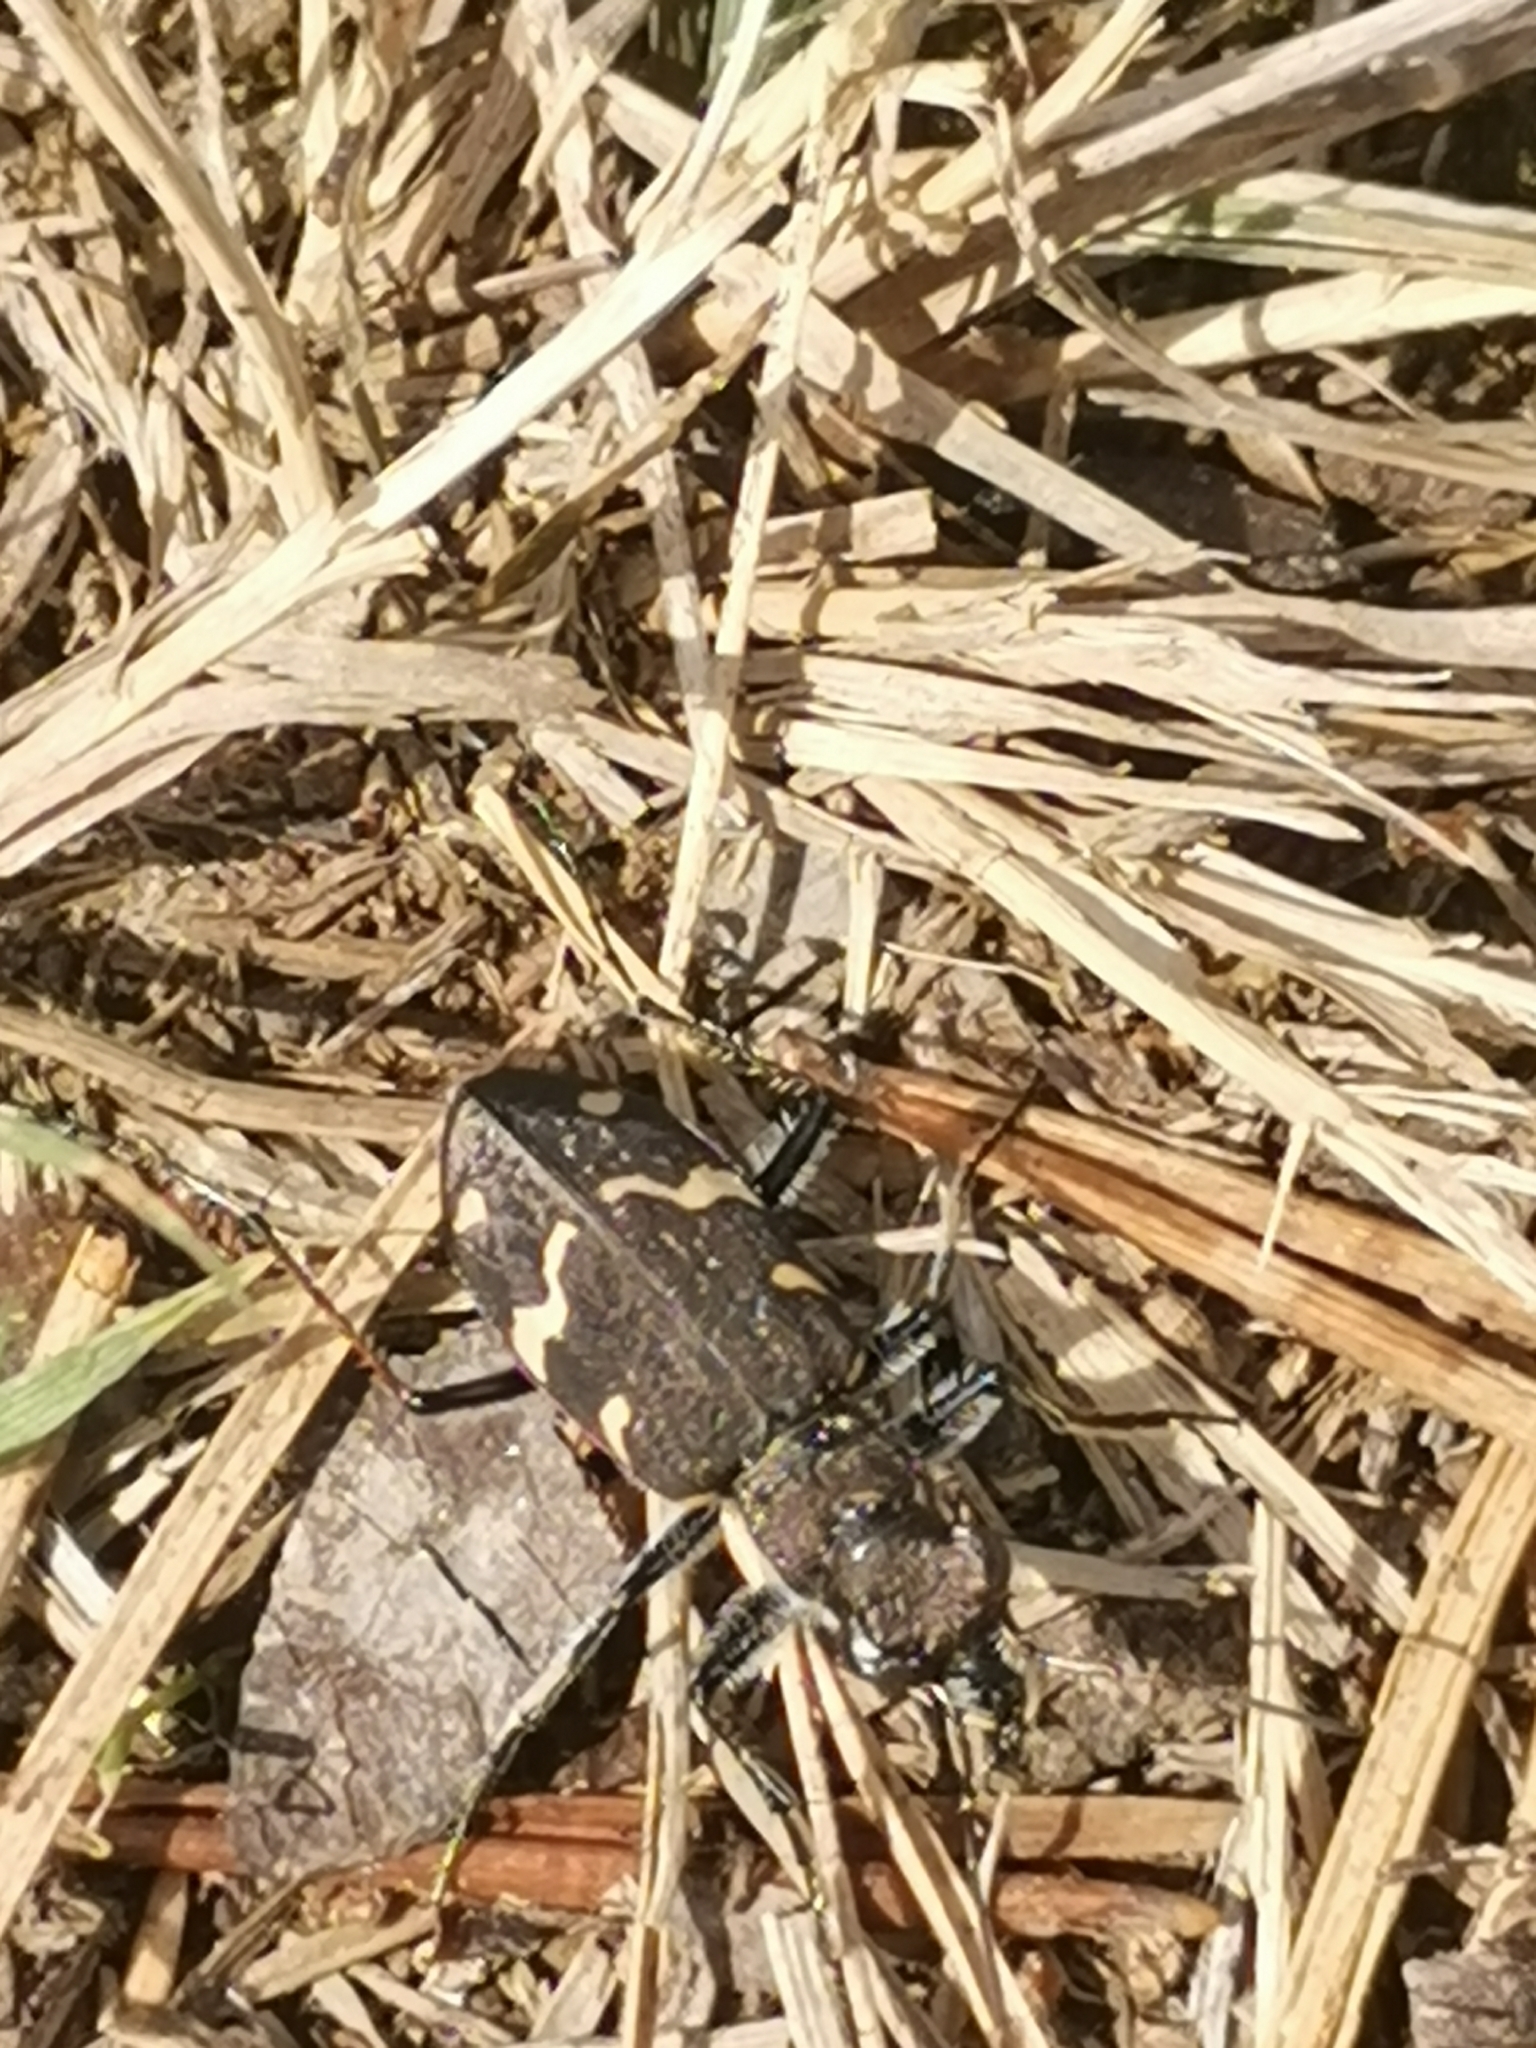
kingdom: Animalia
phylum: Arthropoda
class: Insecta
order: Coleoptera
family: Carabidae
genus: Cicindela
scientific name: Cicindela sylvatica
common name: Heath tiger beetle
